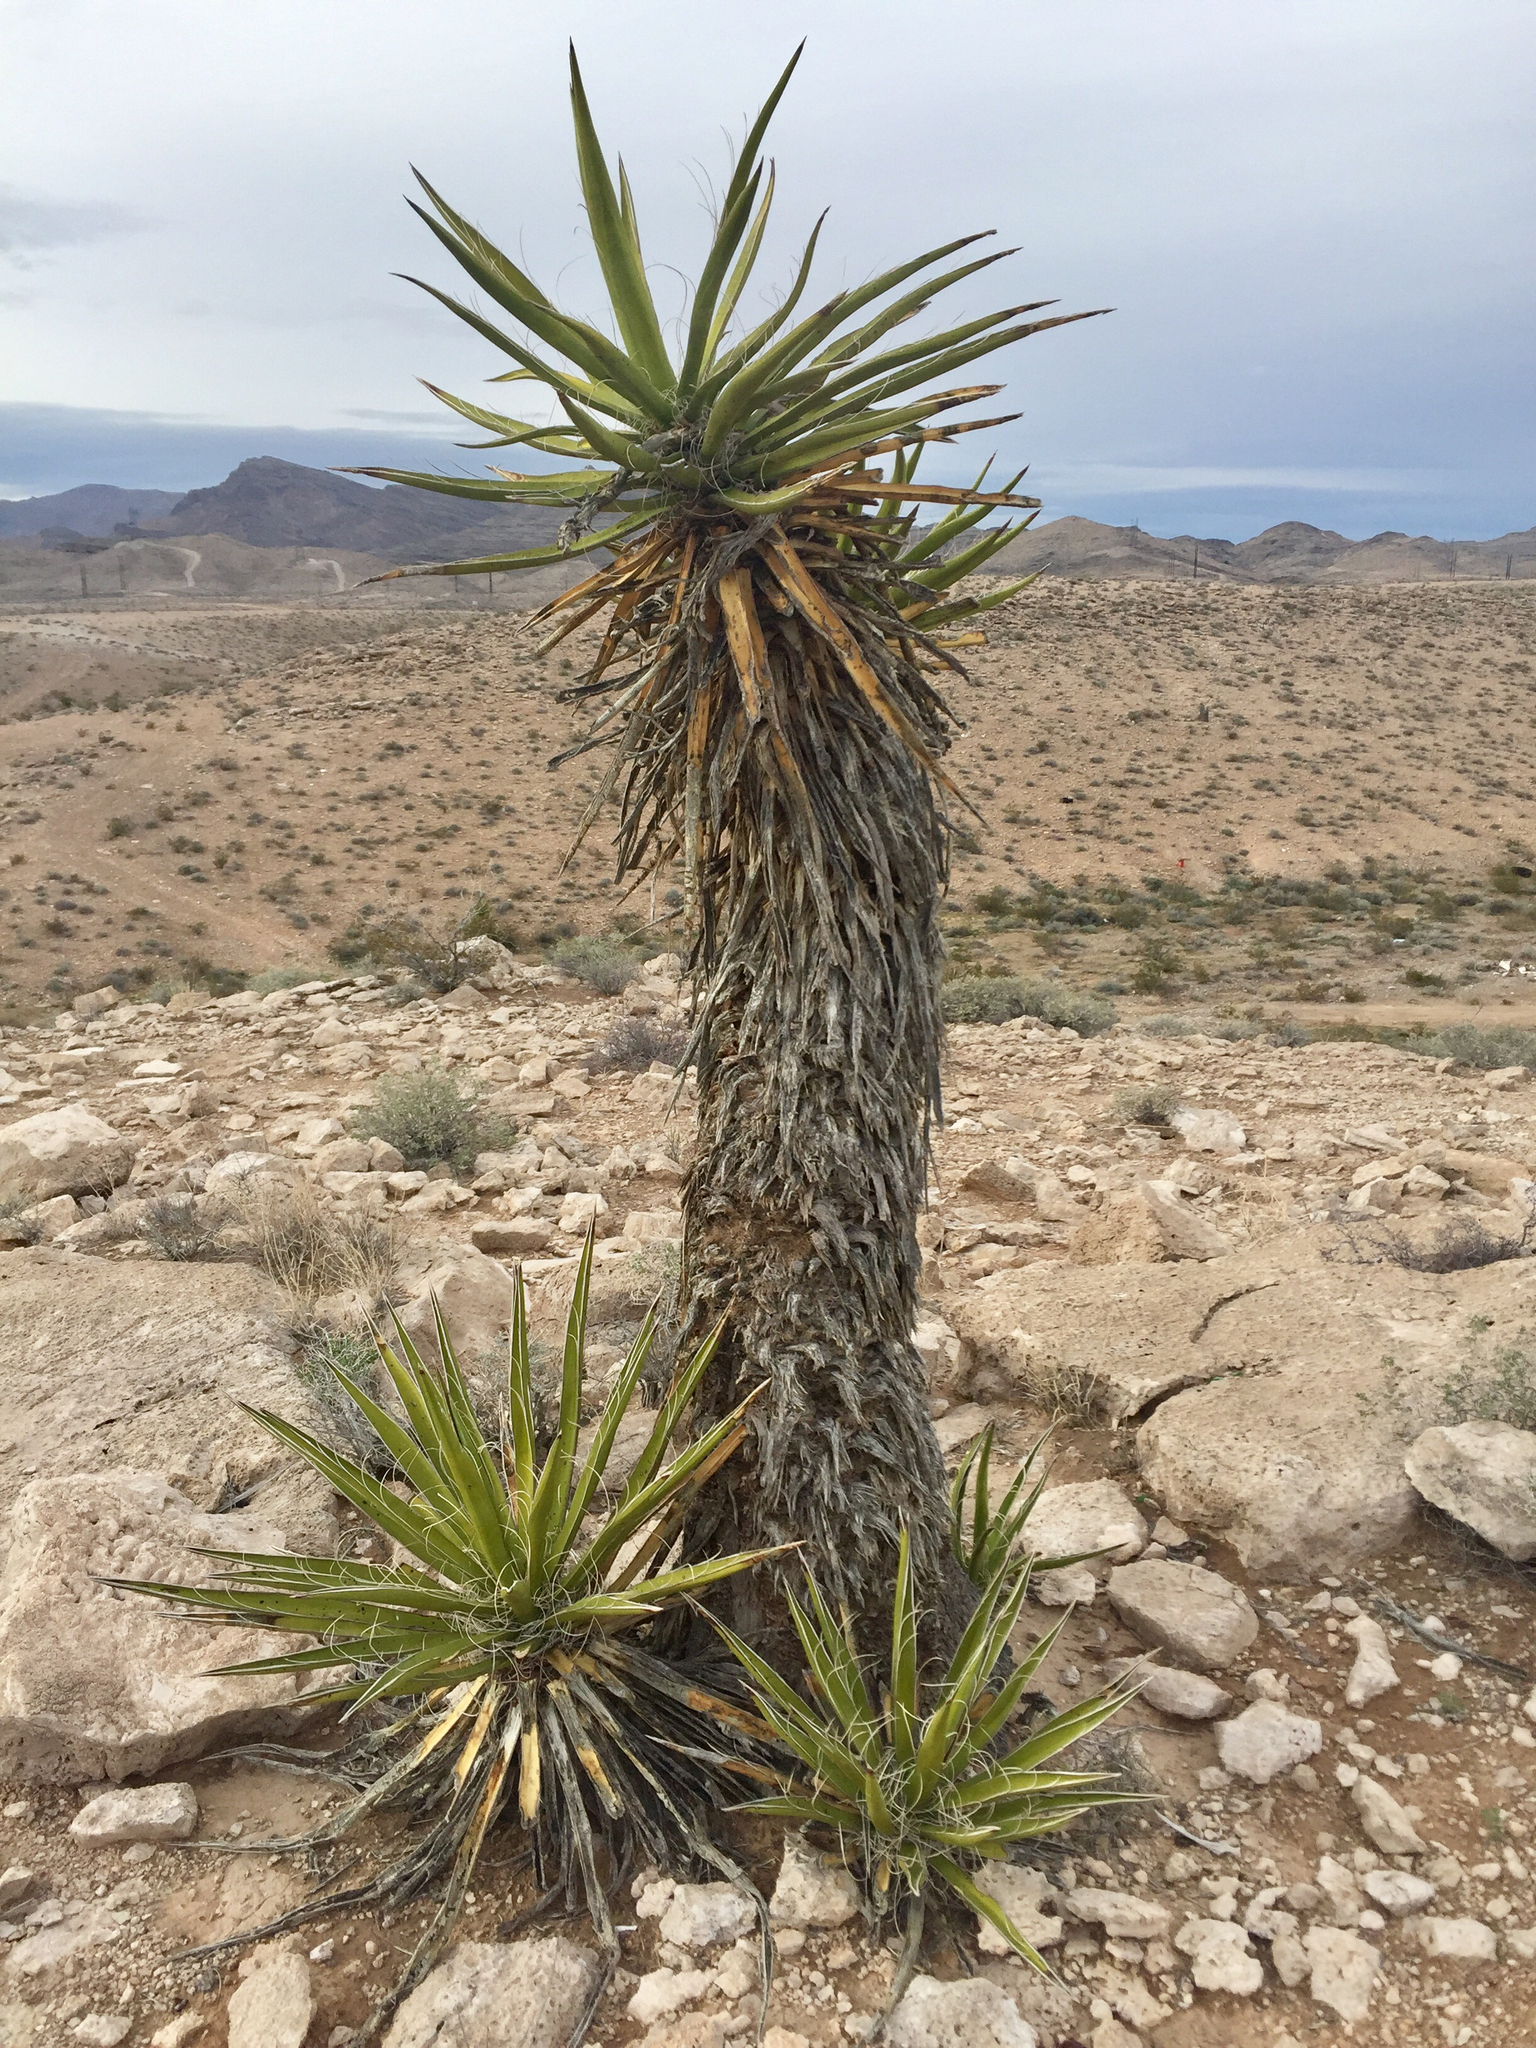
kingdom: Plantae
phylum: Tracheophyta
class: Liliopsida
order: Asparagales
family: Asparagaceae
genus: Yucca
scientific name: Yucca schidigera
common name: Mojave yucca
